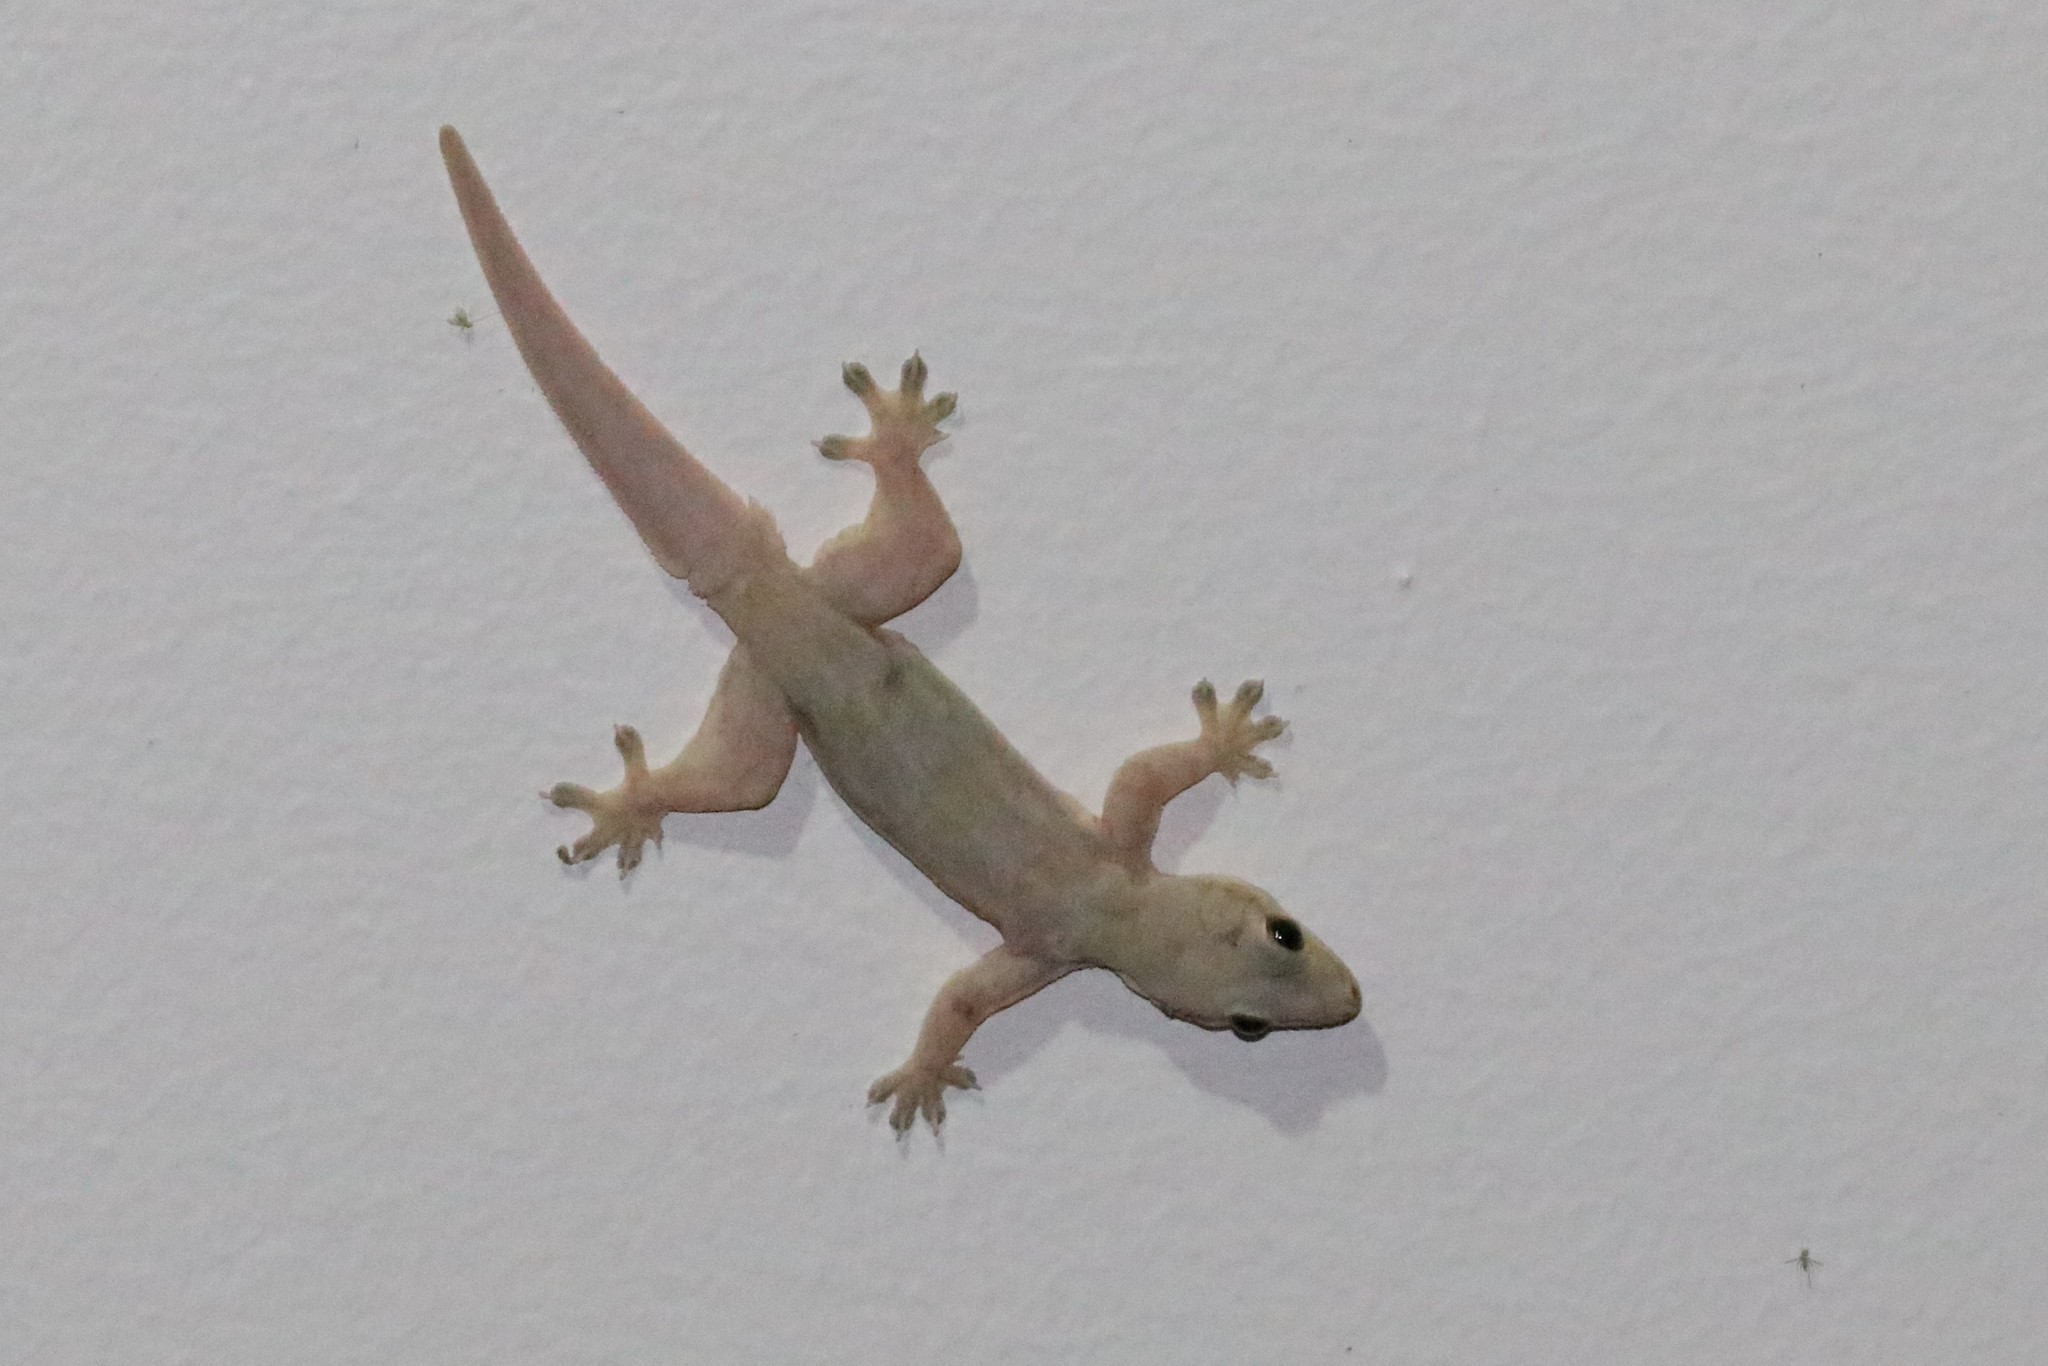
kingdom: Animalia
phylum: Chordata
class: Squamata
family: Gekkonidae
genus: Hemidactylus
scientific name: Hemidactylus platyurus
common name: Flat-tailed house gecko
